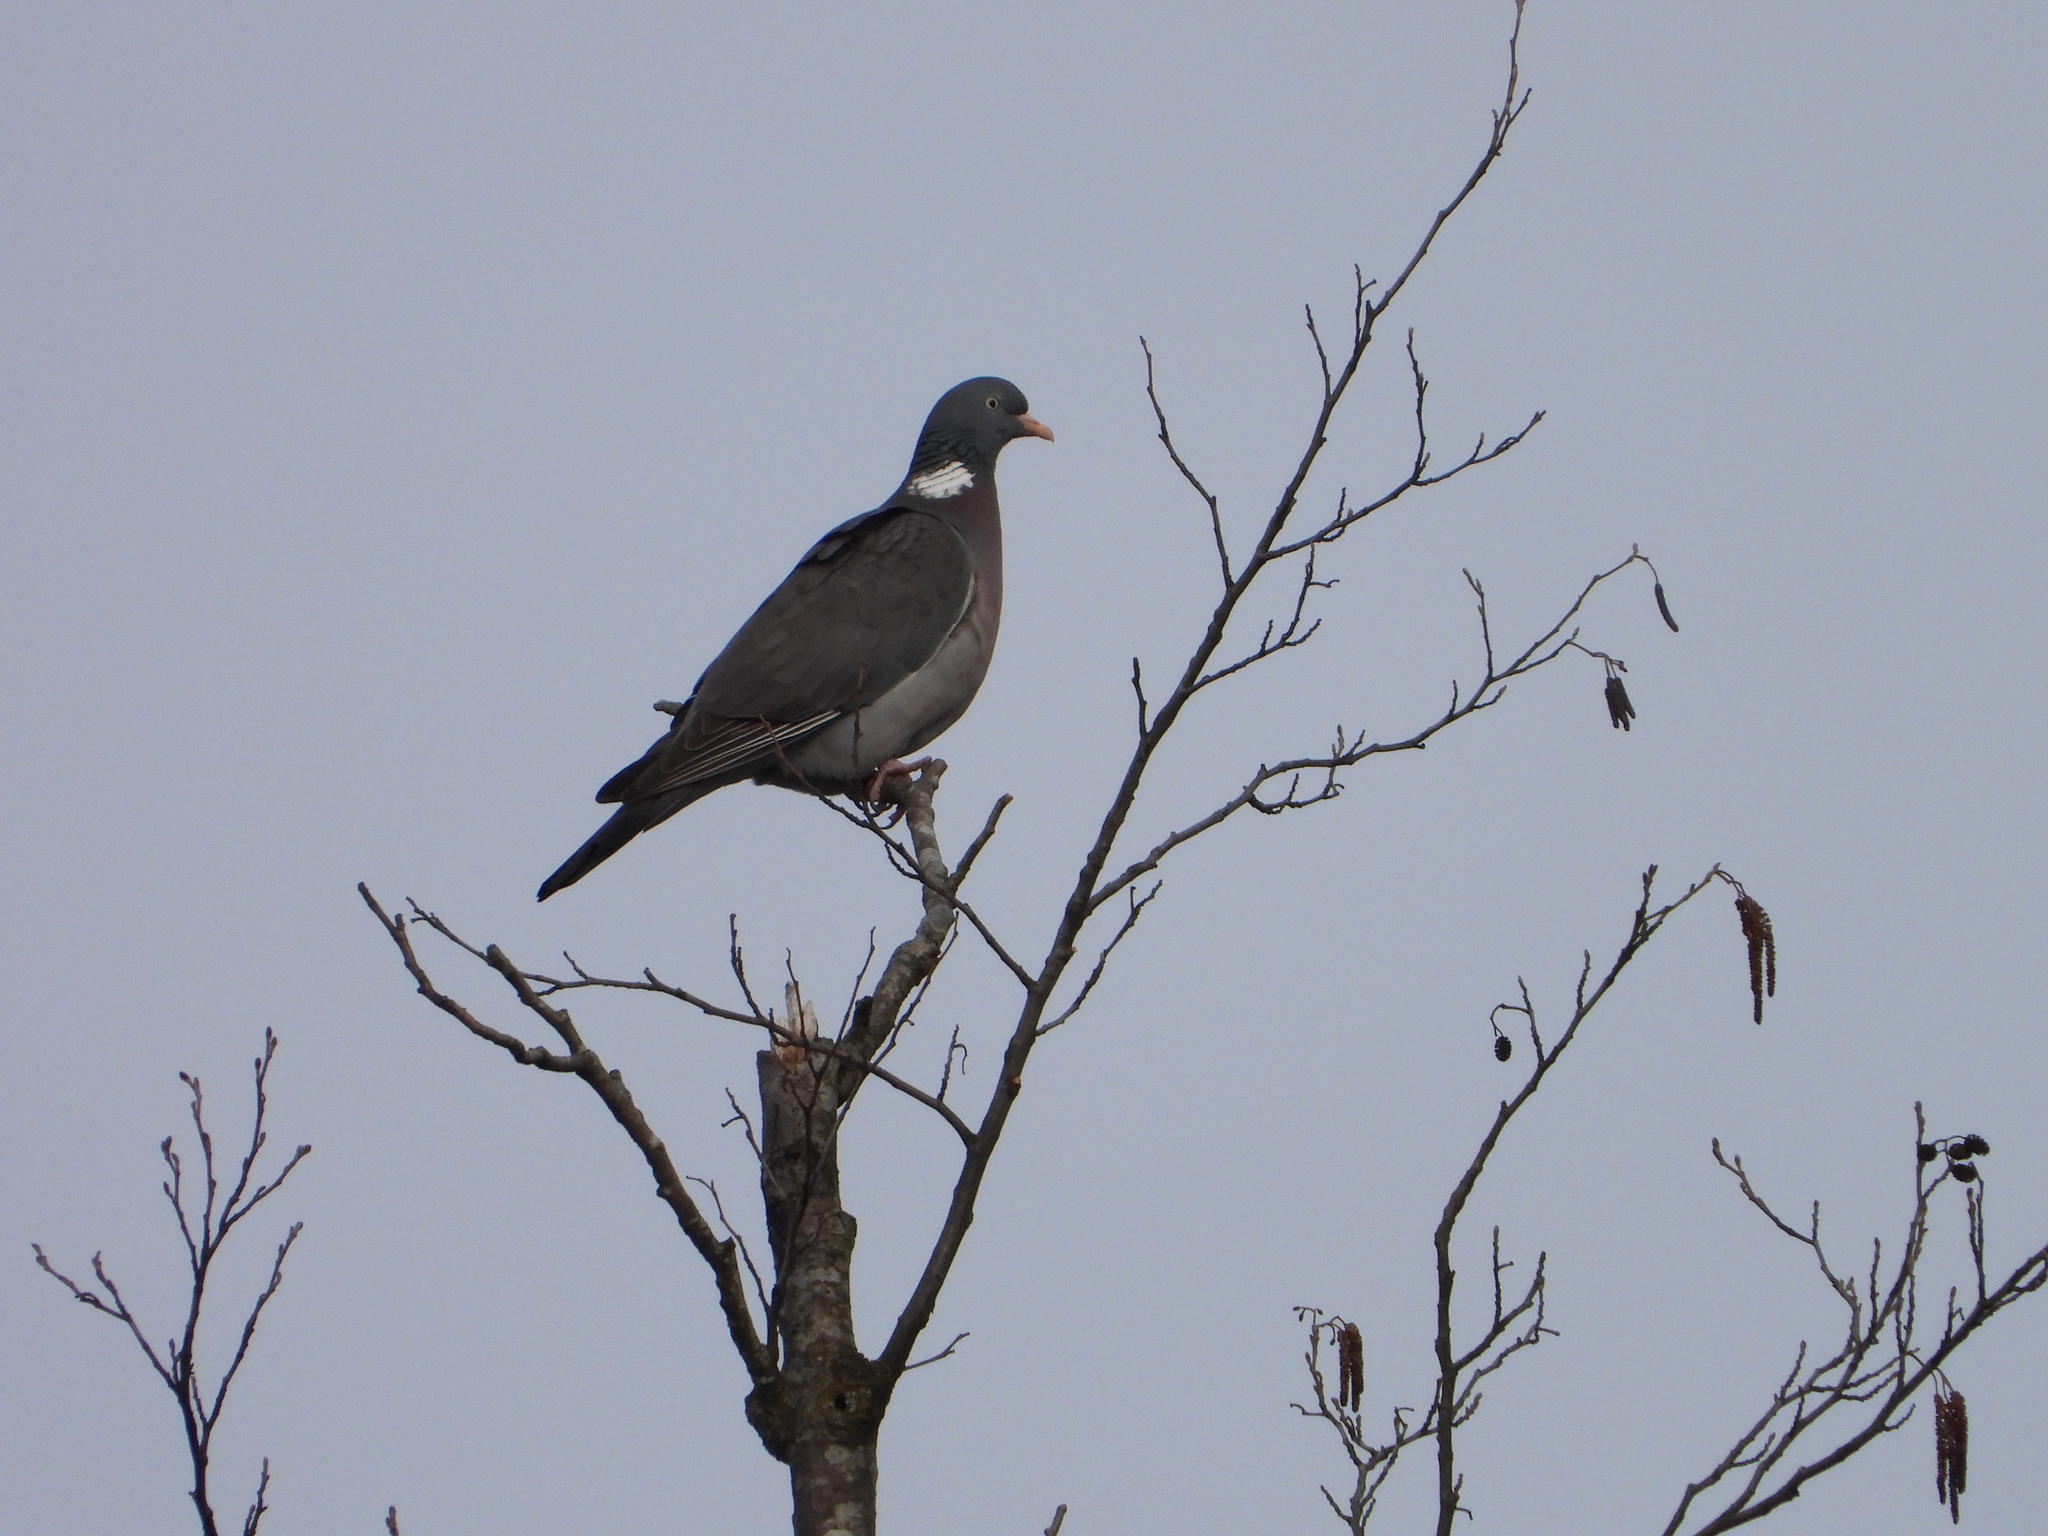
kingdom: Animalia
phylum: Chordata
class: Aves
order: Columbiformes
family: Columbidae
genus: Columba
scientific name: Columba palumbus
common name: Common wood pigeon
